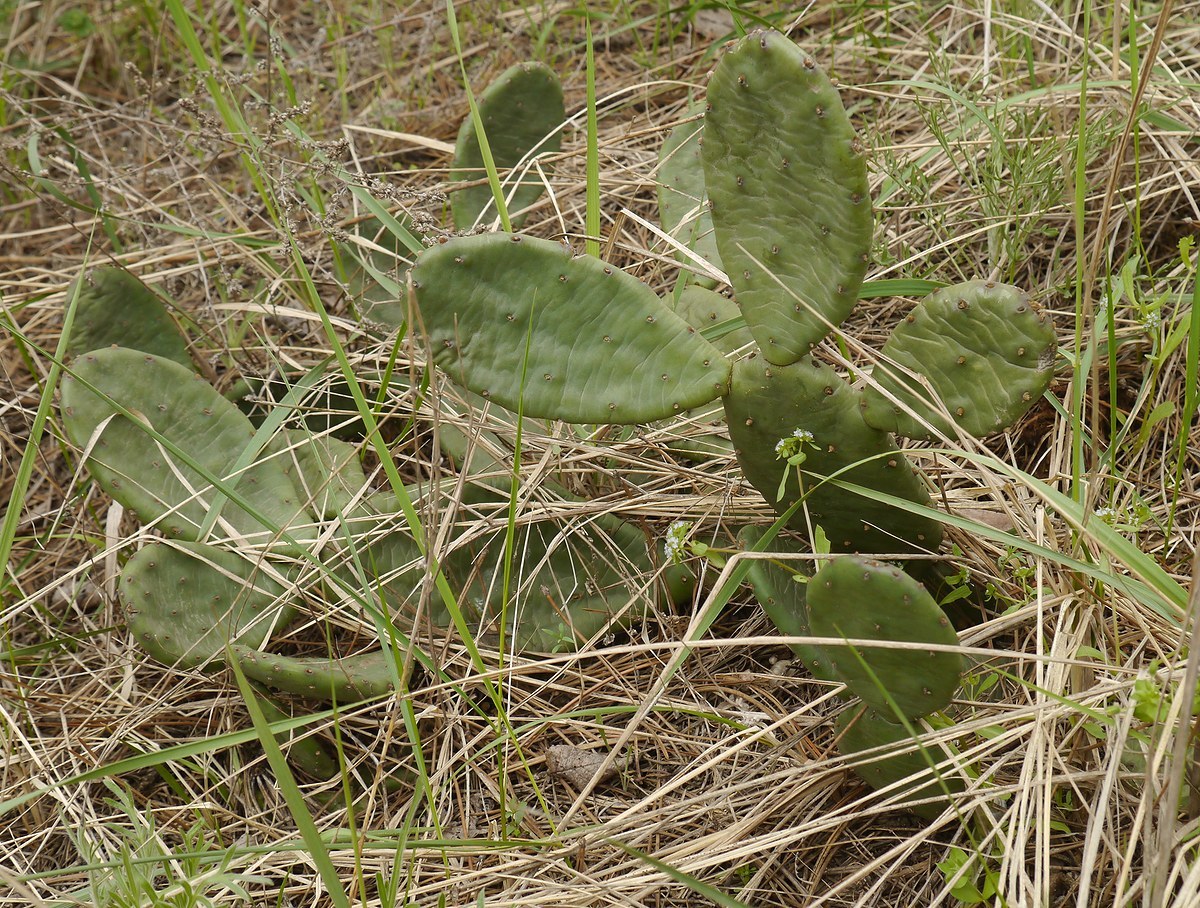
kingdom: Plantae
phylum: Tracheophyta
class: Magnoliopsida
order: Caryophyllales
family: Cactaceae
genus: Opuntia
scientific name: Opuntia humifusa
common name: Eastern prickly-pear
